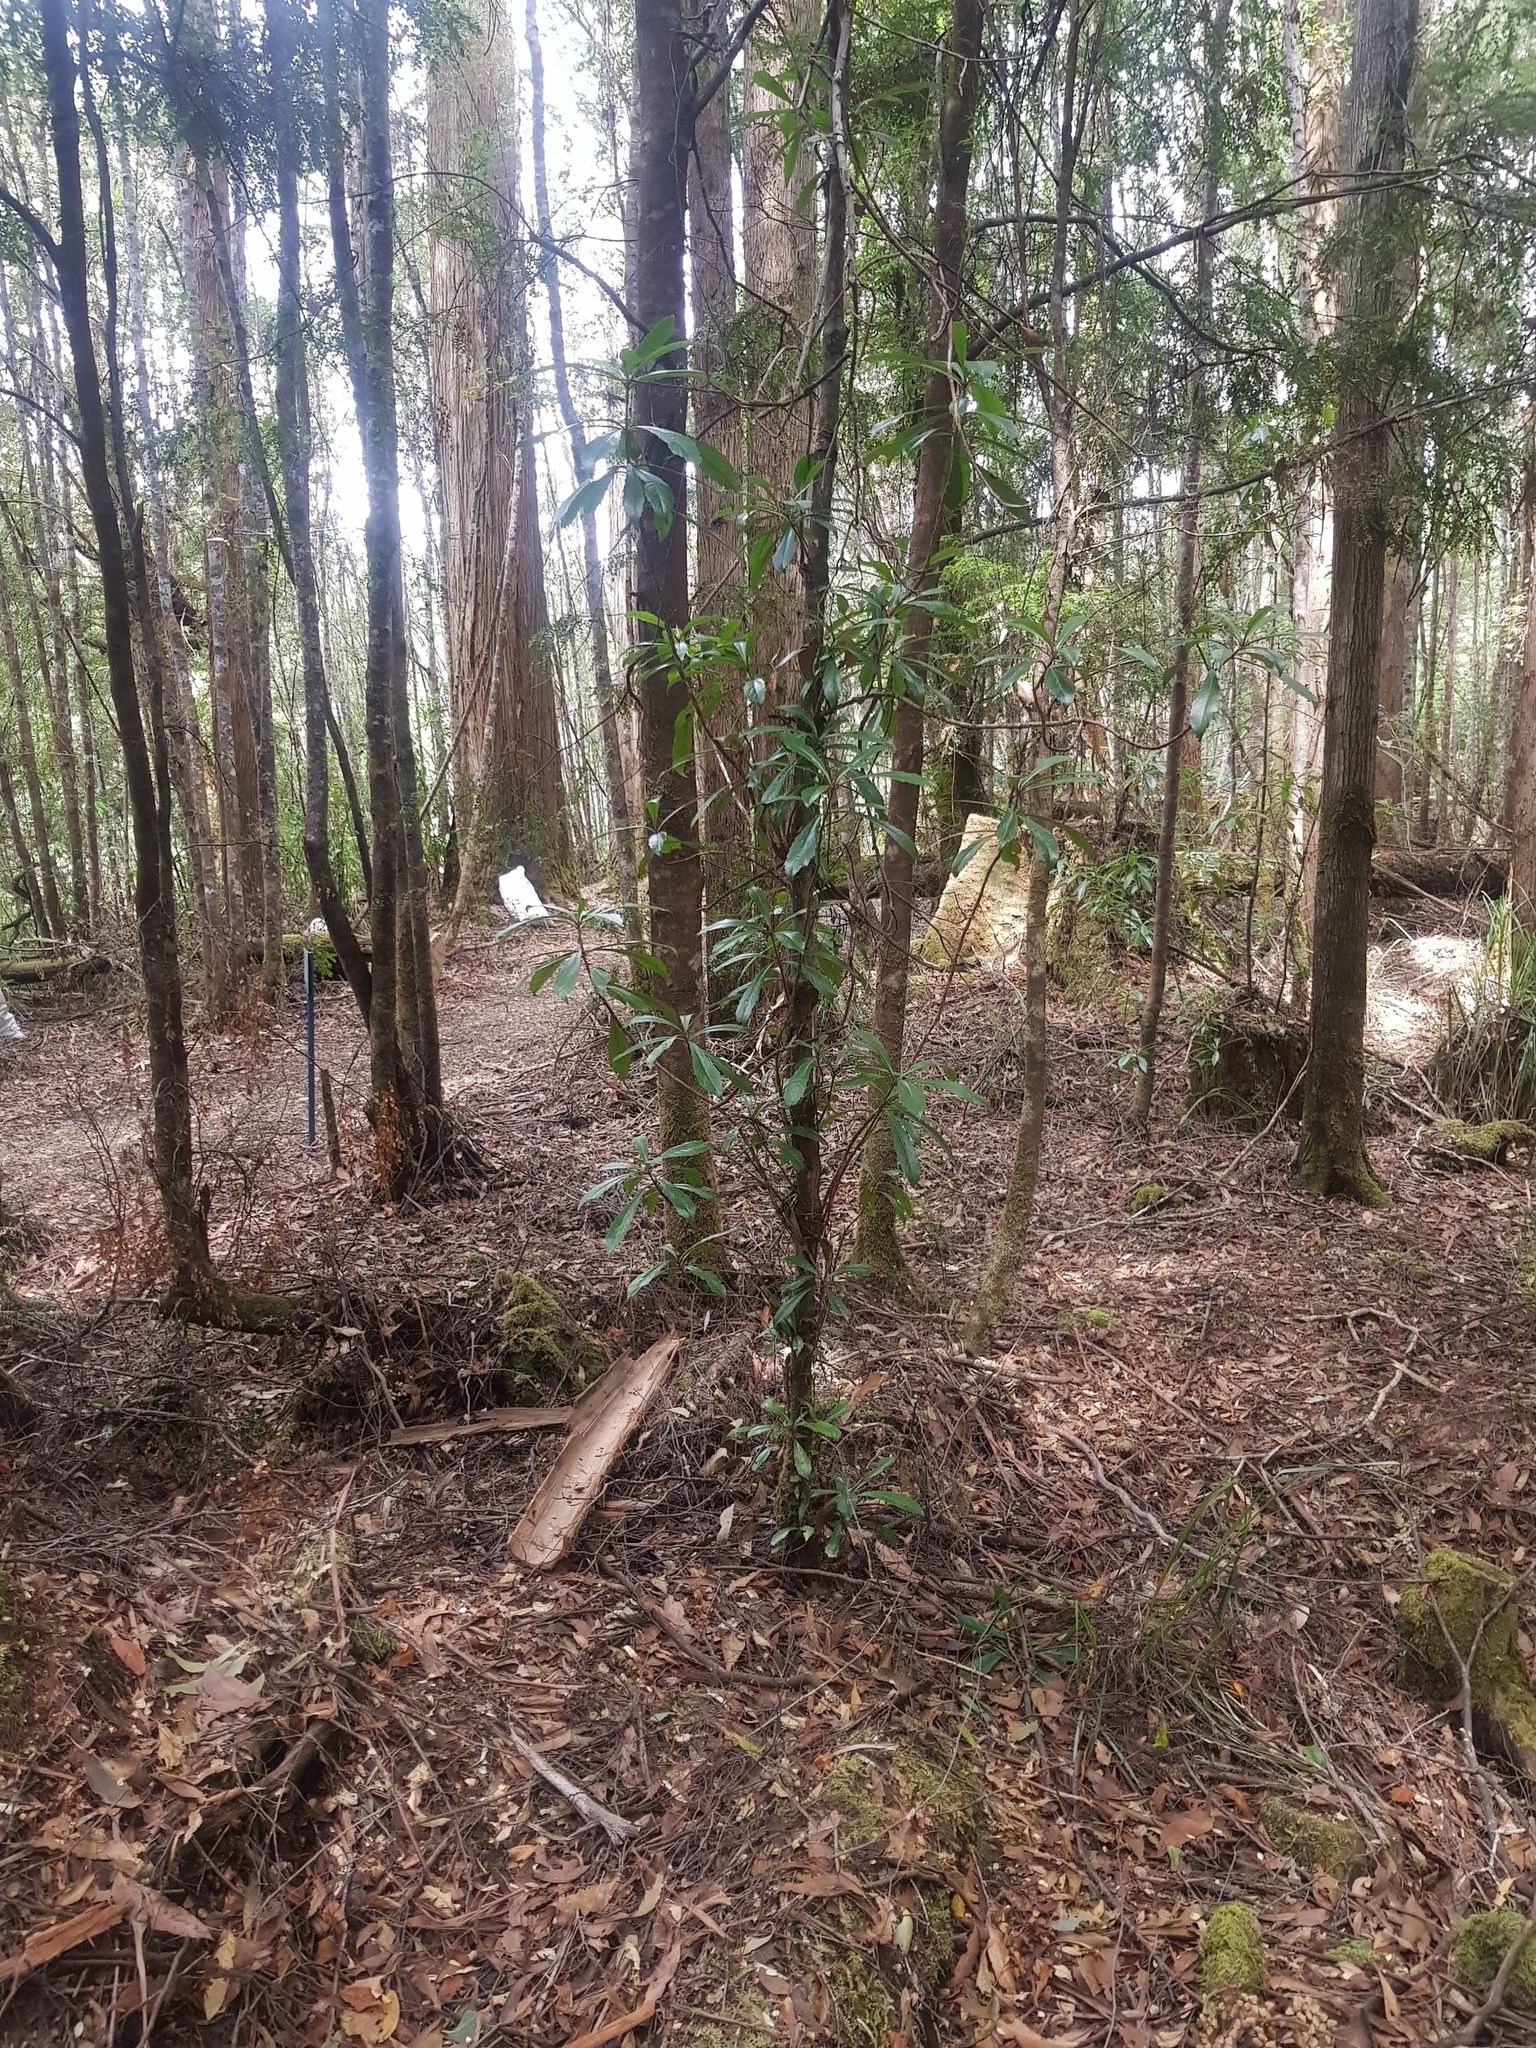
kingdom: Plantae
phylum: Tracheophyta
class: Magnoliopsida
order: Escalloniales
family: Escalloniaceae
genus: Anopterus
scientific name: Anopterus glandulosus
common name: Tasmanian-laurel
